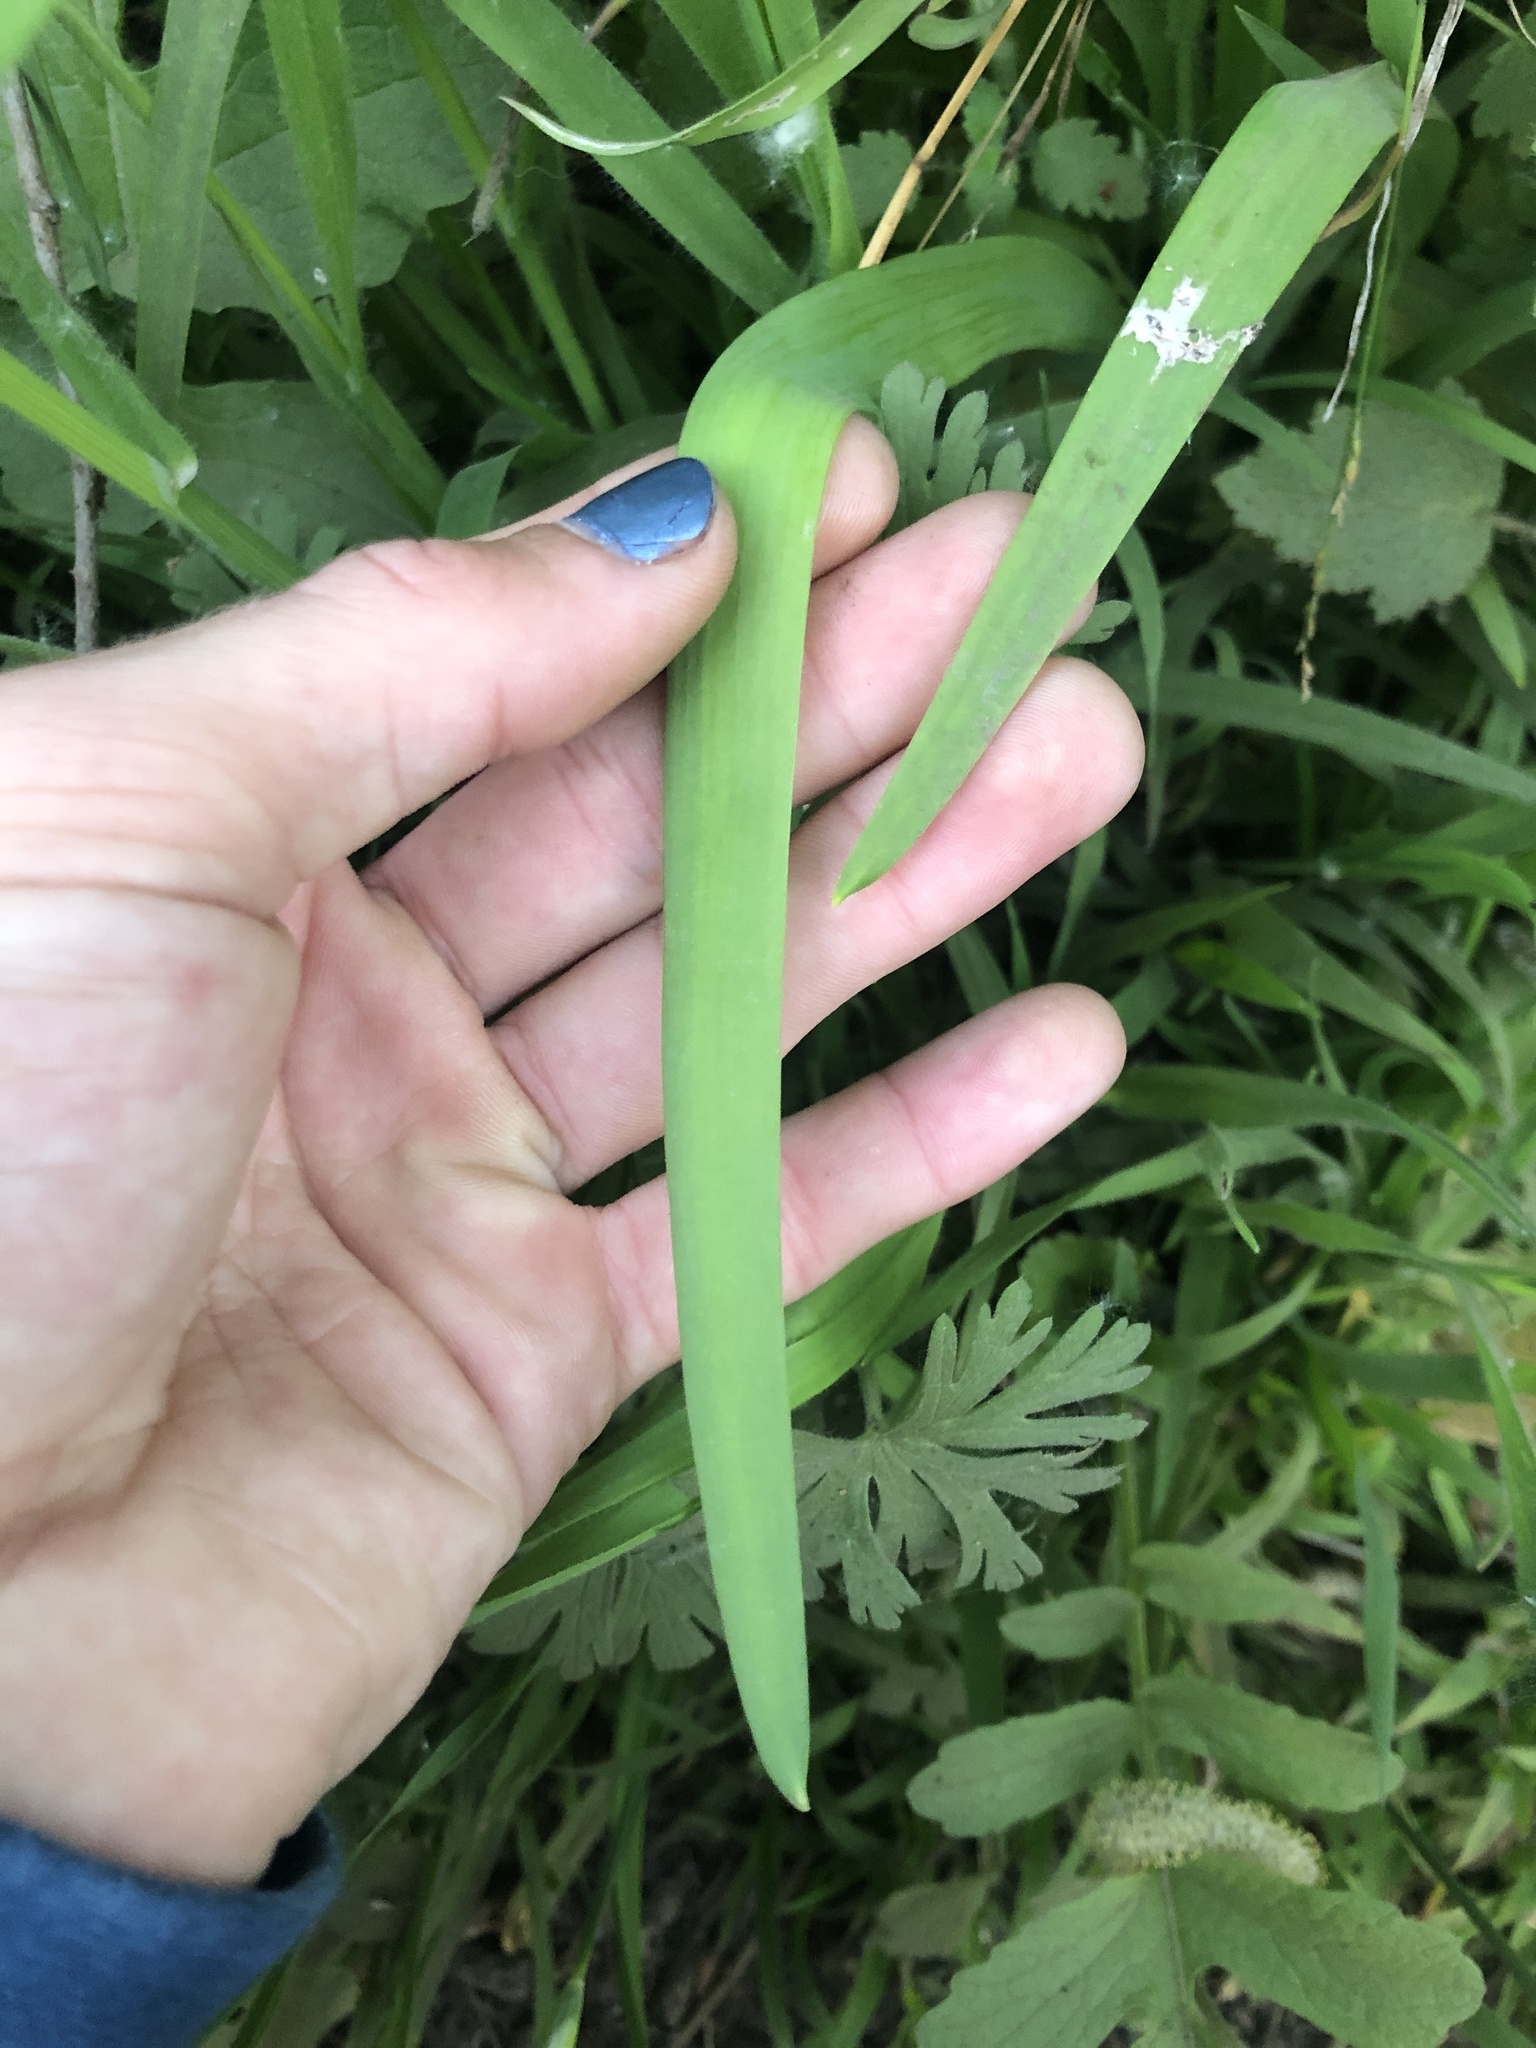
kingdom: Plantae
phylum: Tracheophyta
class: Liliopsida
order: Asparagales
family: Amaryllidaceae
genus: Allium
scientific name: Allium triquetrum
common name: Three-cornered garlic
